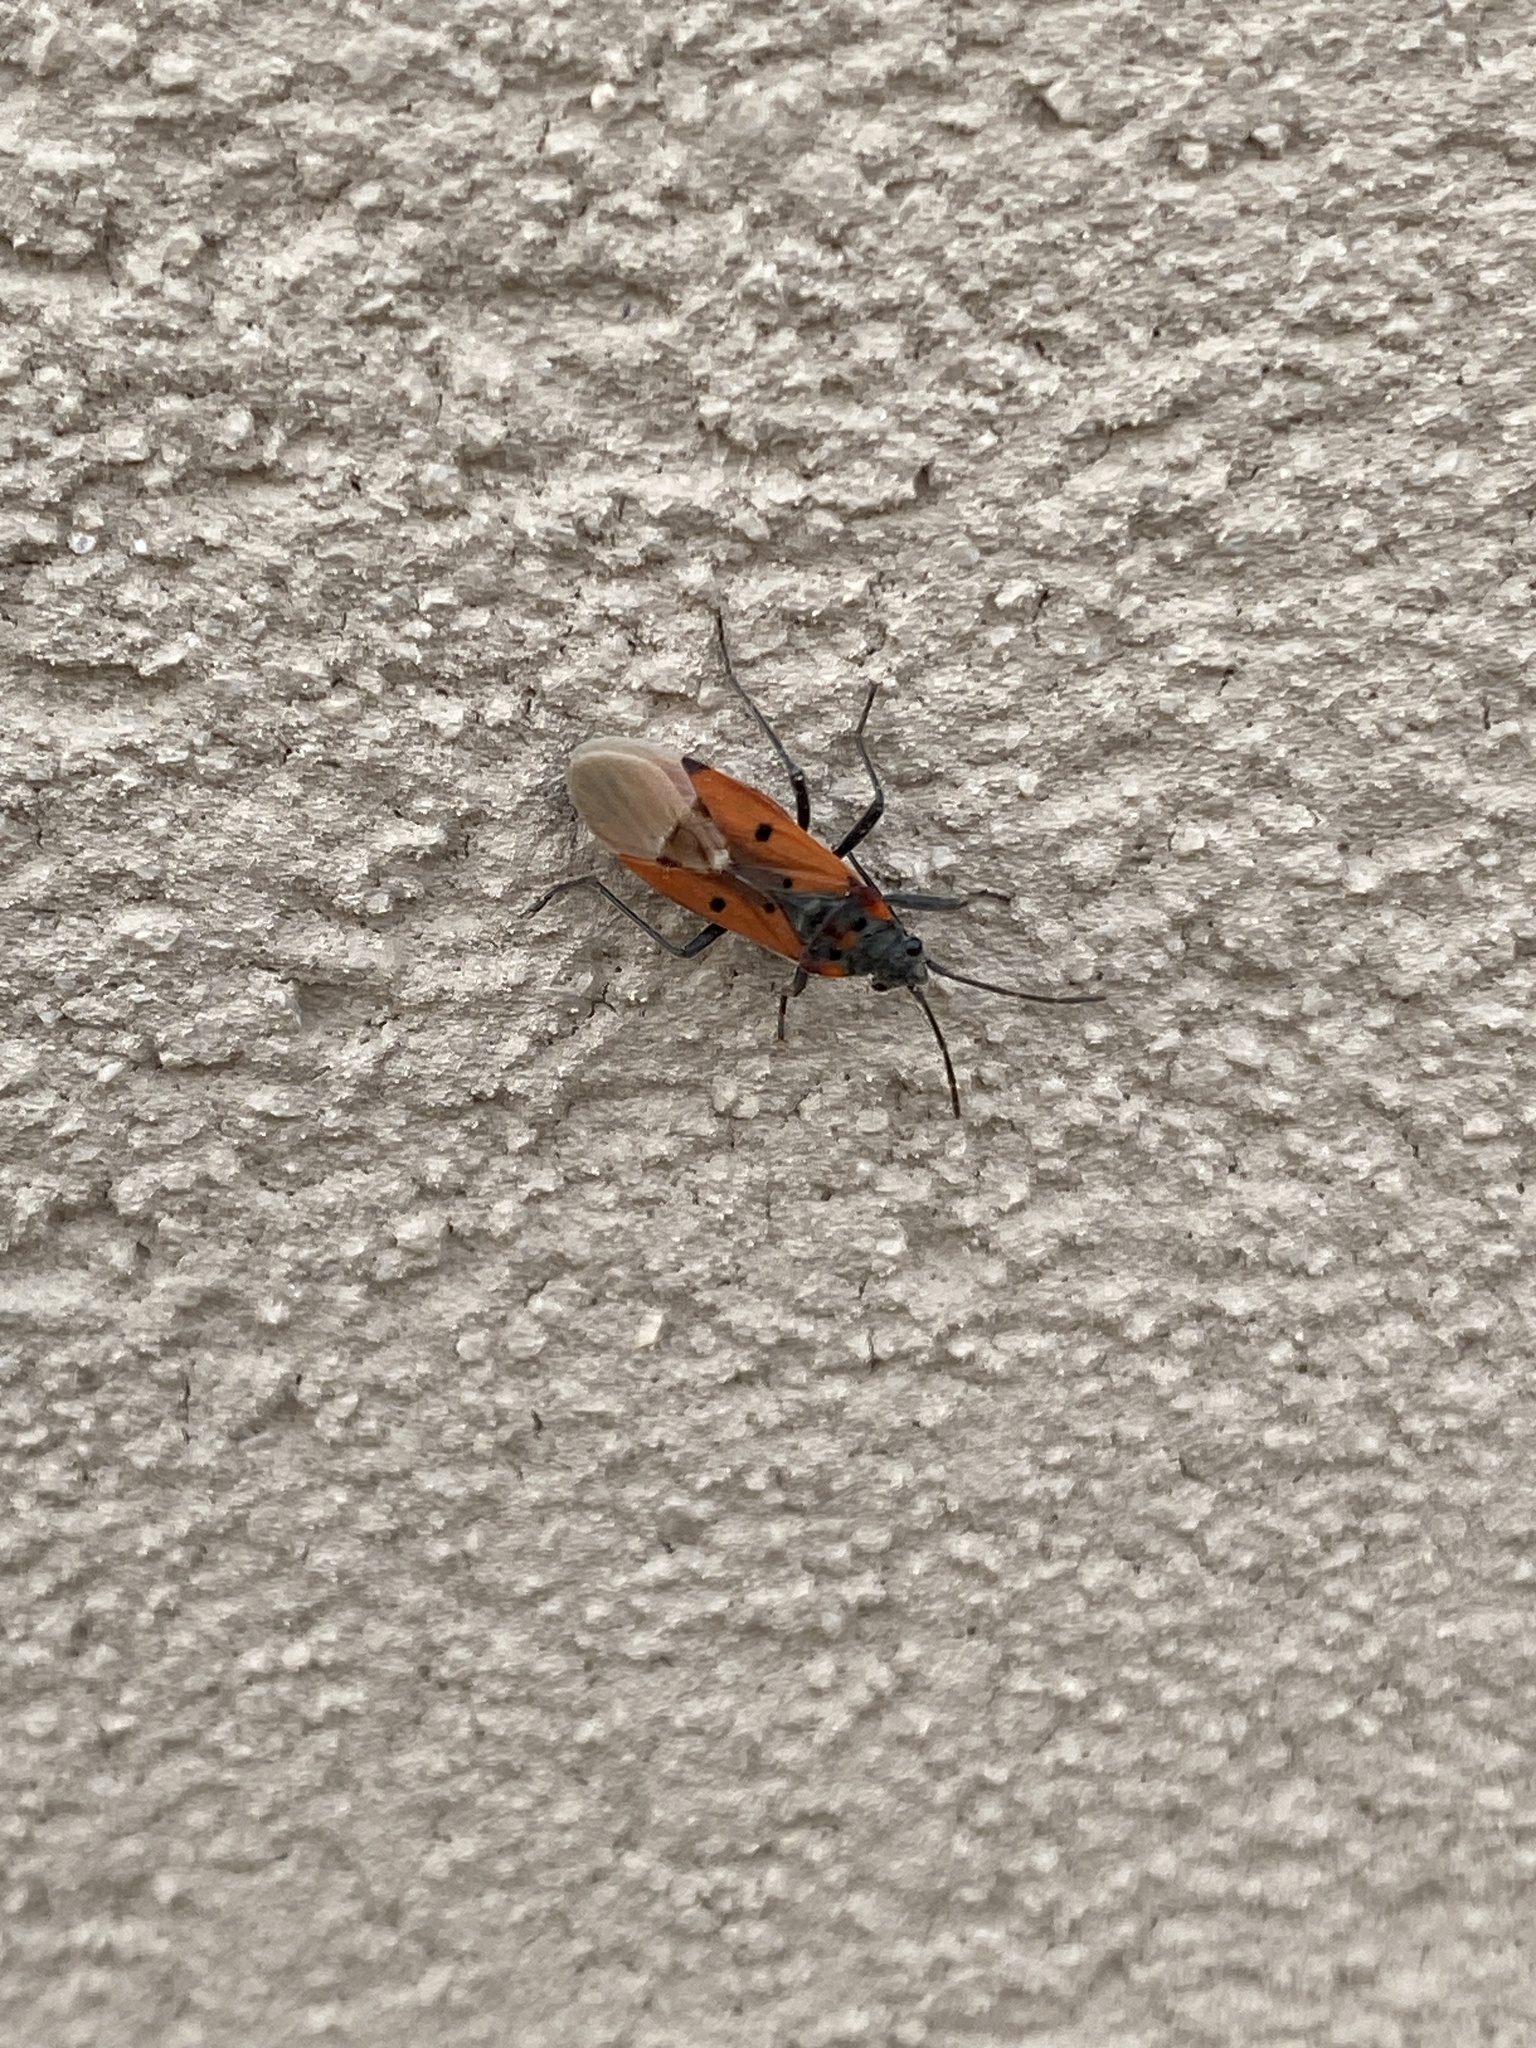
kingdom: Animalia
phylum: Arthropoda
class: Insecta
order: Hemiptera
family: Lygaeidae
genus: Lygaeus
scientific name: Lygaeus creticus
